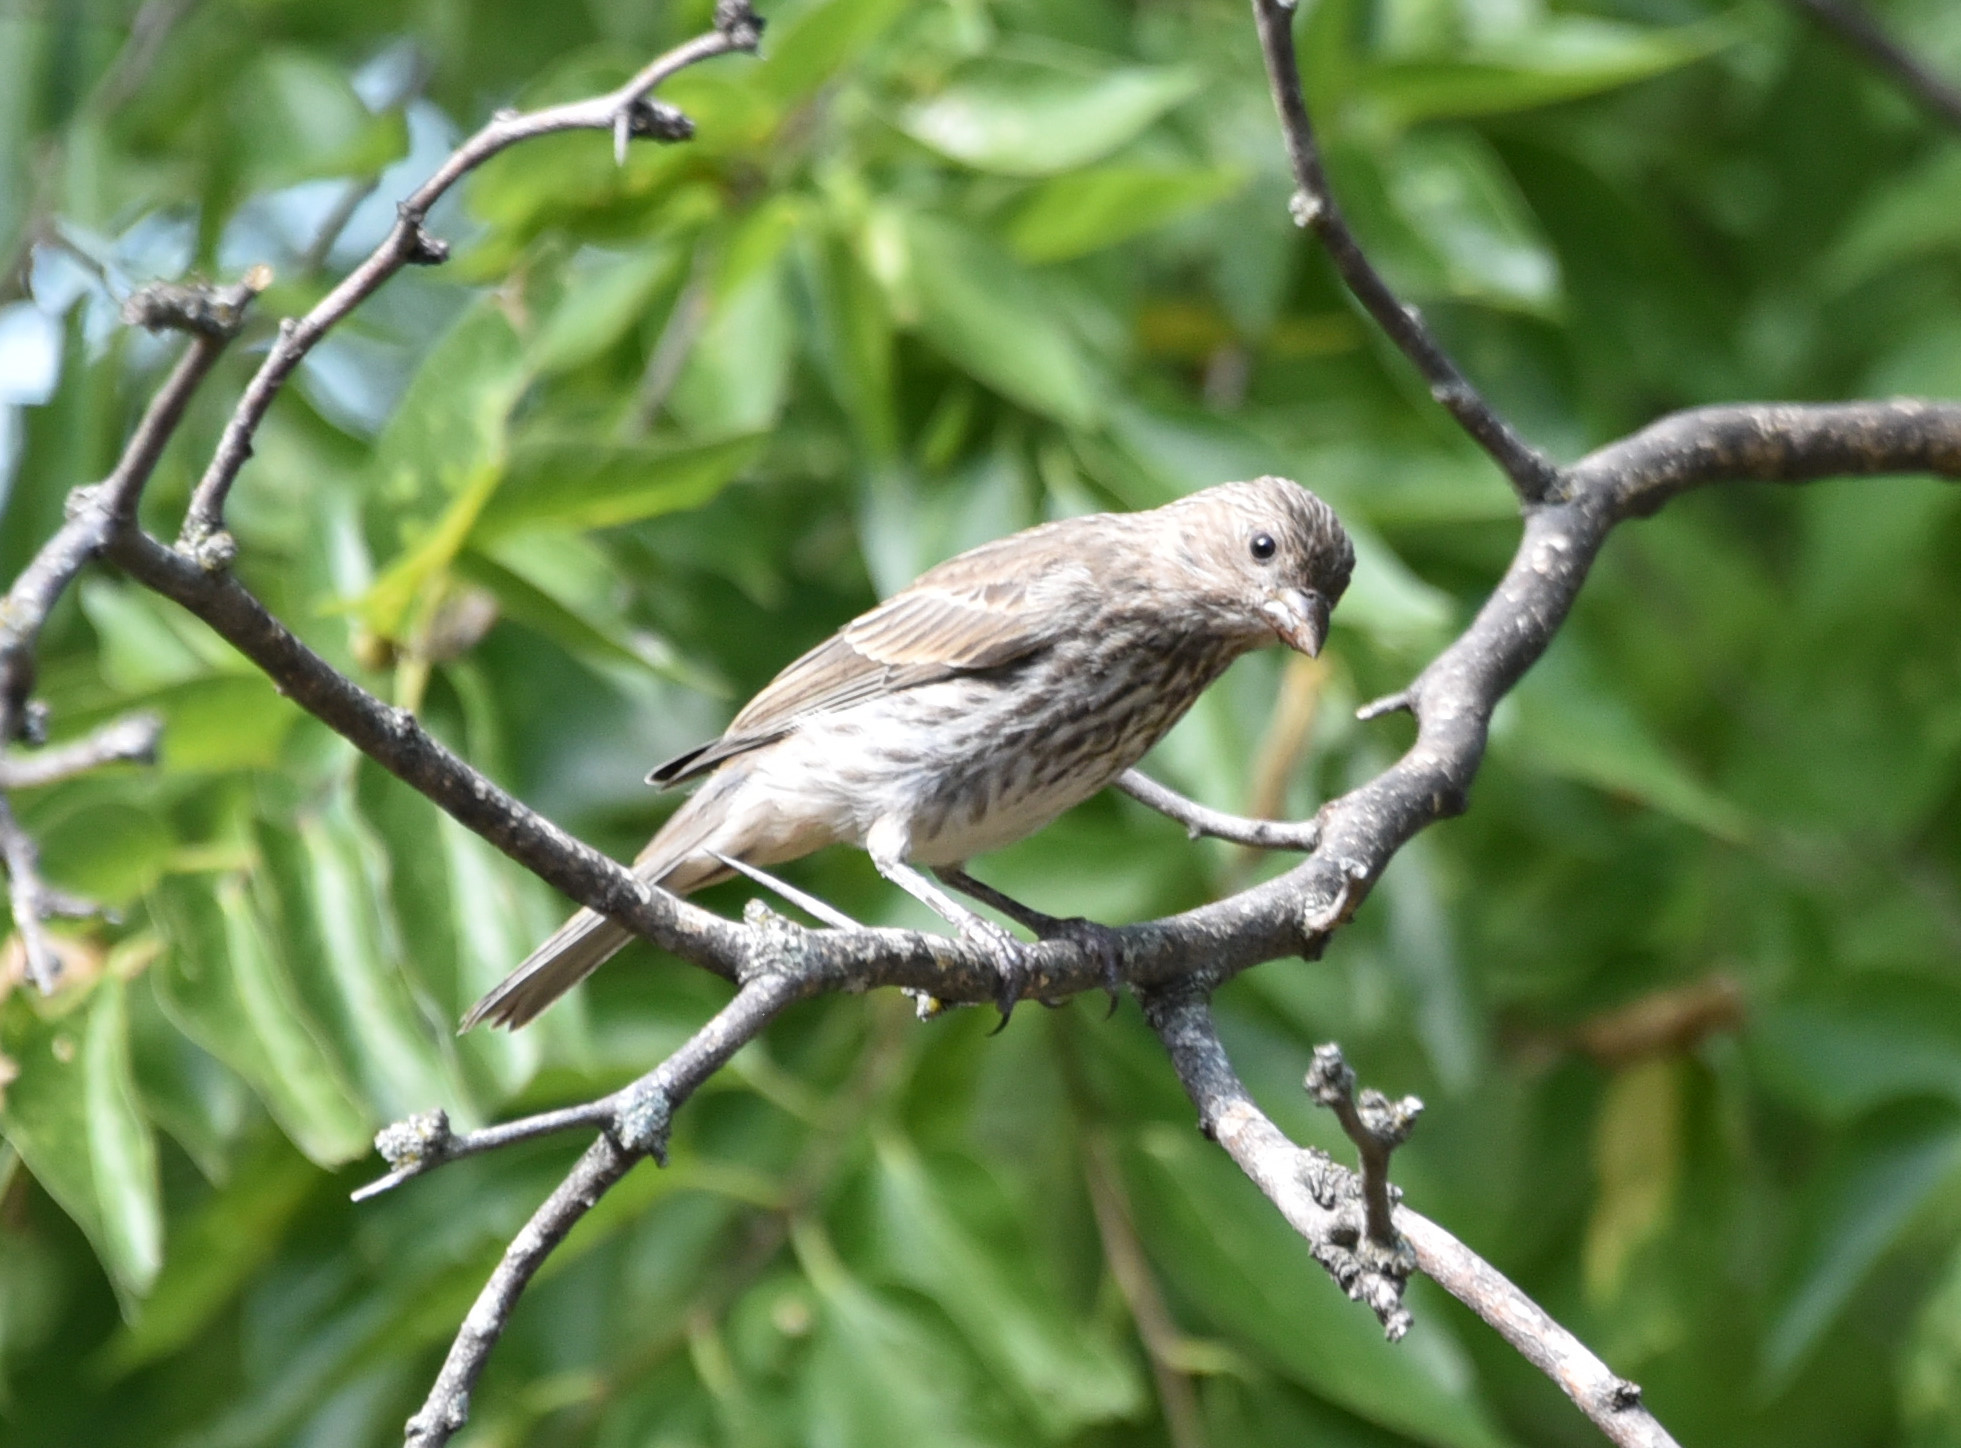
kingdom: Animalia
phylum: Chordata
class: Aves
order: Passeriformes
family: Fringillidae
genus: Haemorhous
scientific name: Haemorhous mexicanus
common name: House finch
